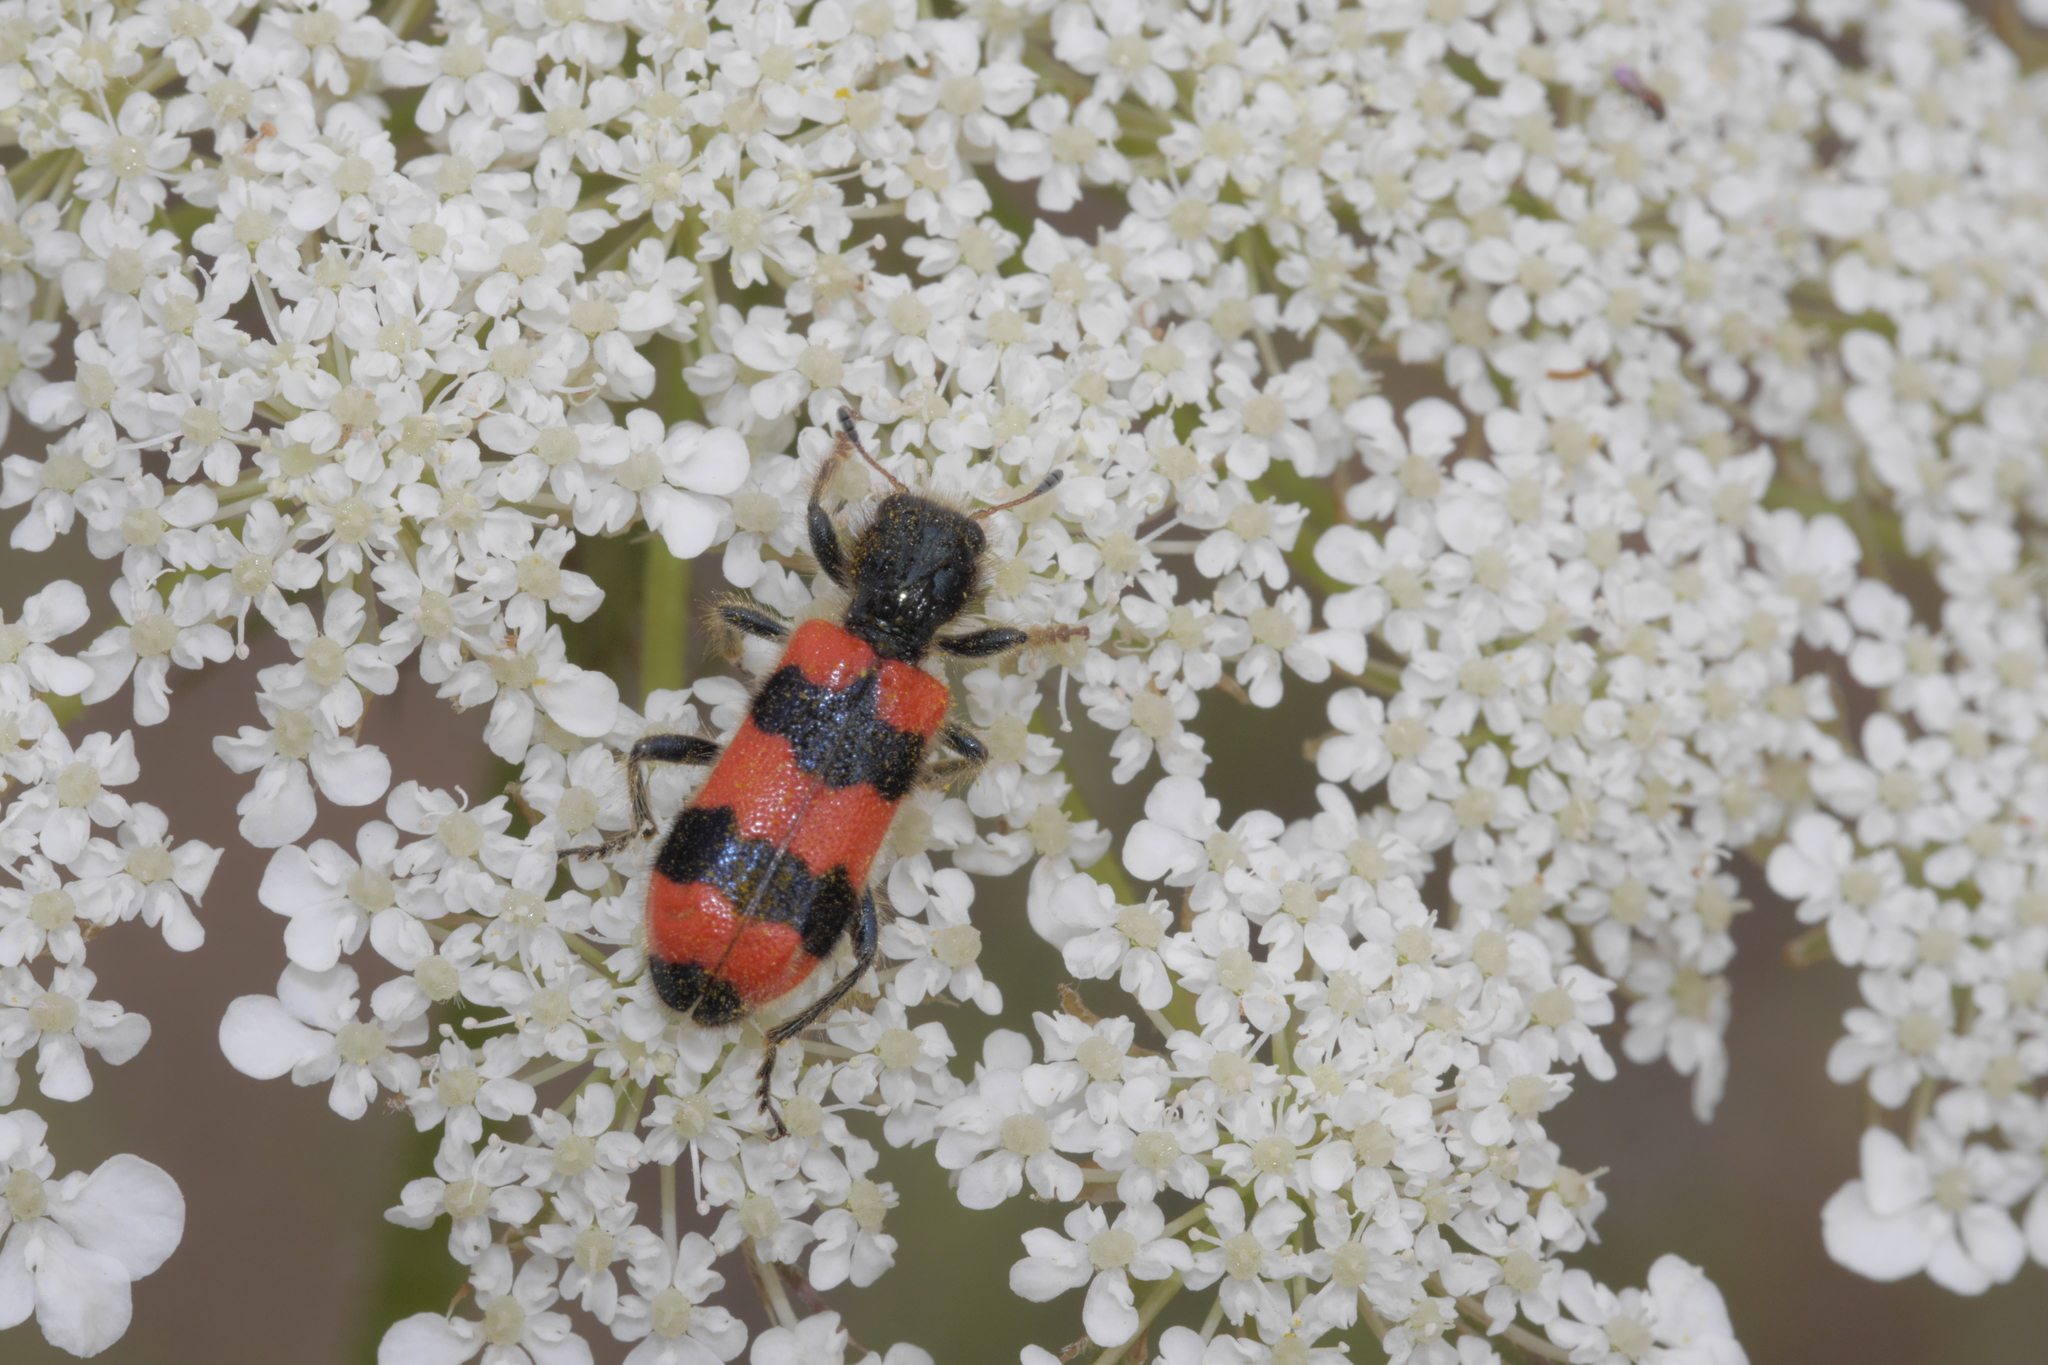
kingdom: Animalia
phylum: Arthropoda
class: Insecta
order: Coleoptera
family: Cleridae
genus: Trichodes
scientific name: Trichodes apiarius
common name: Bee-eating beetle
